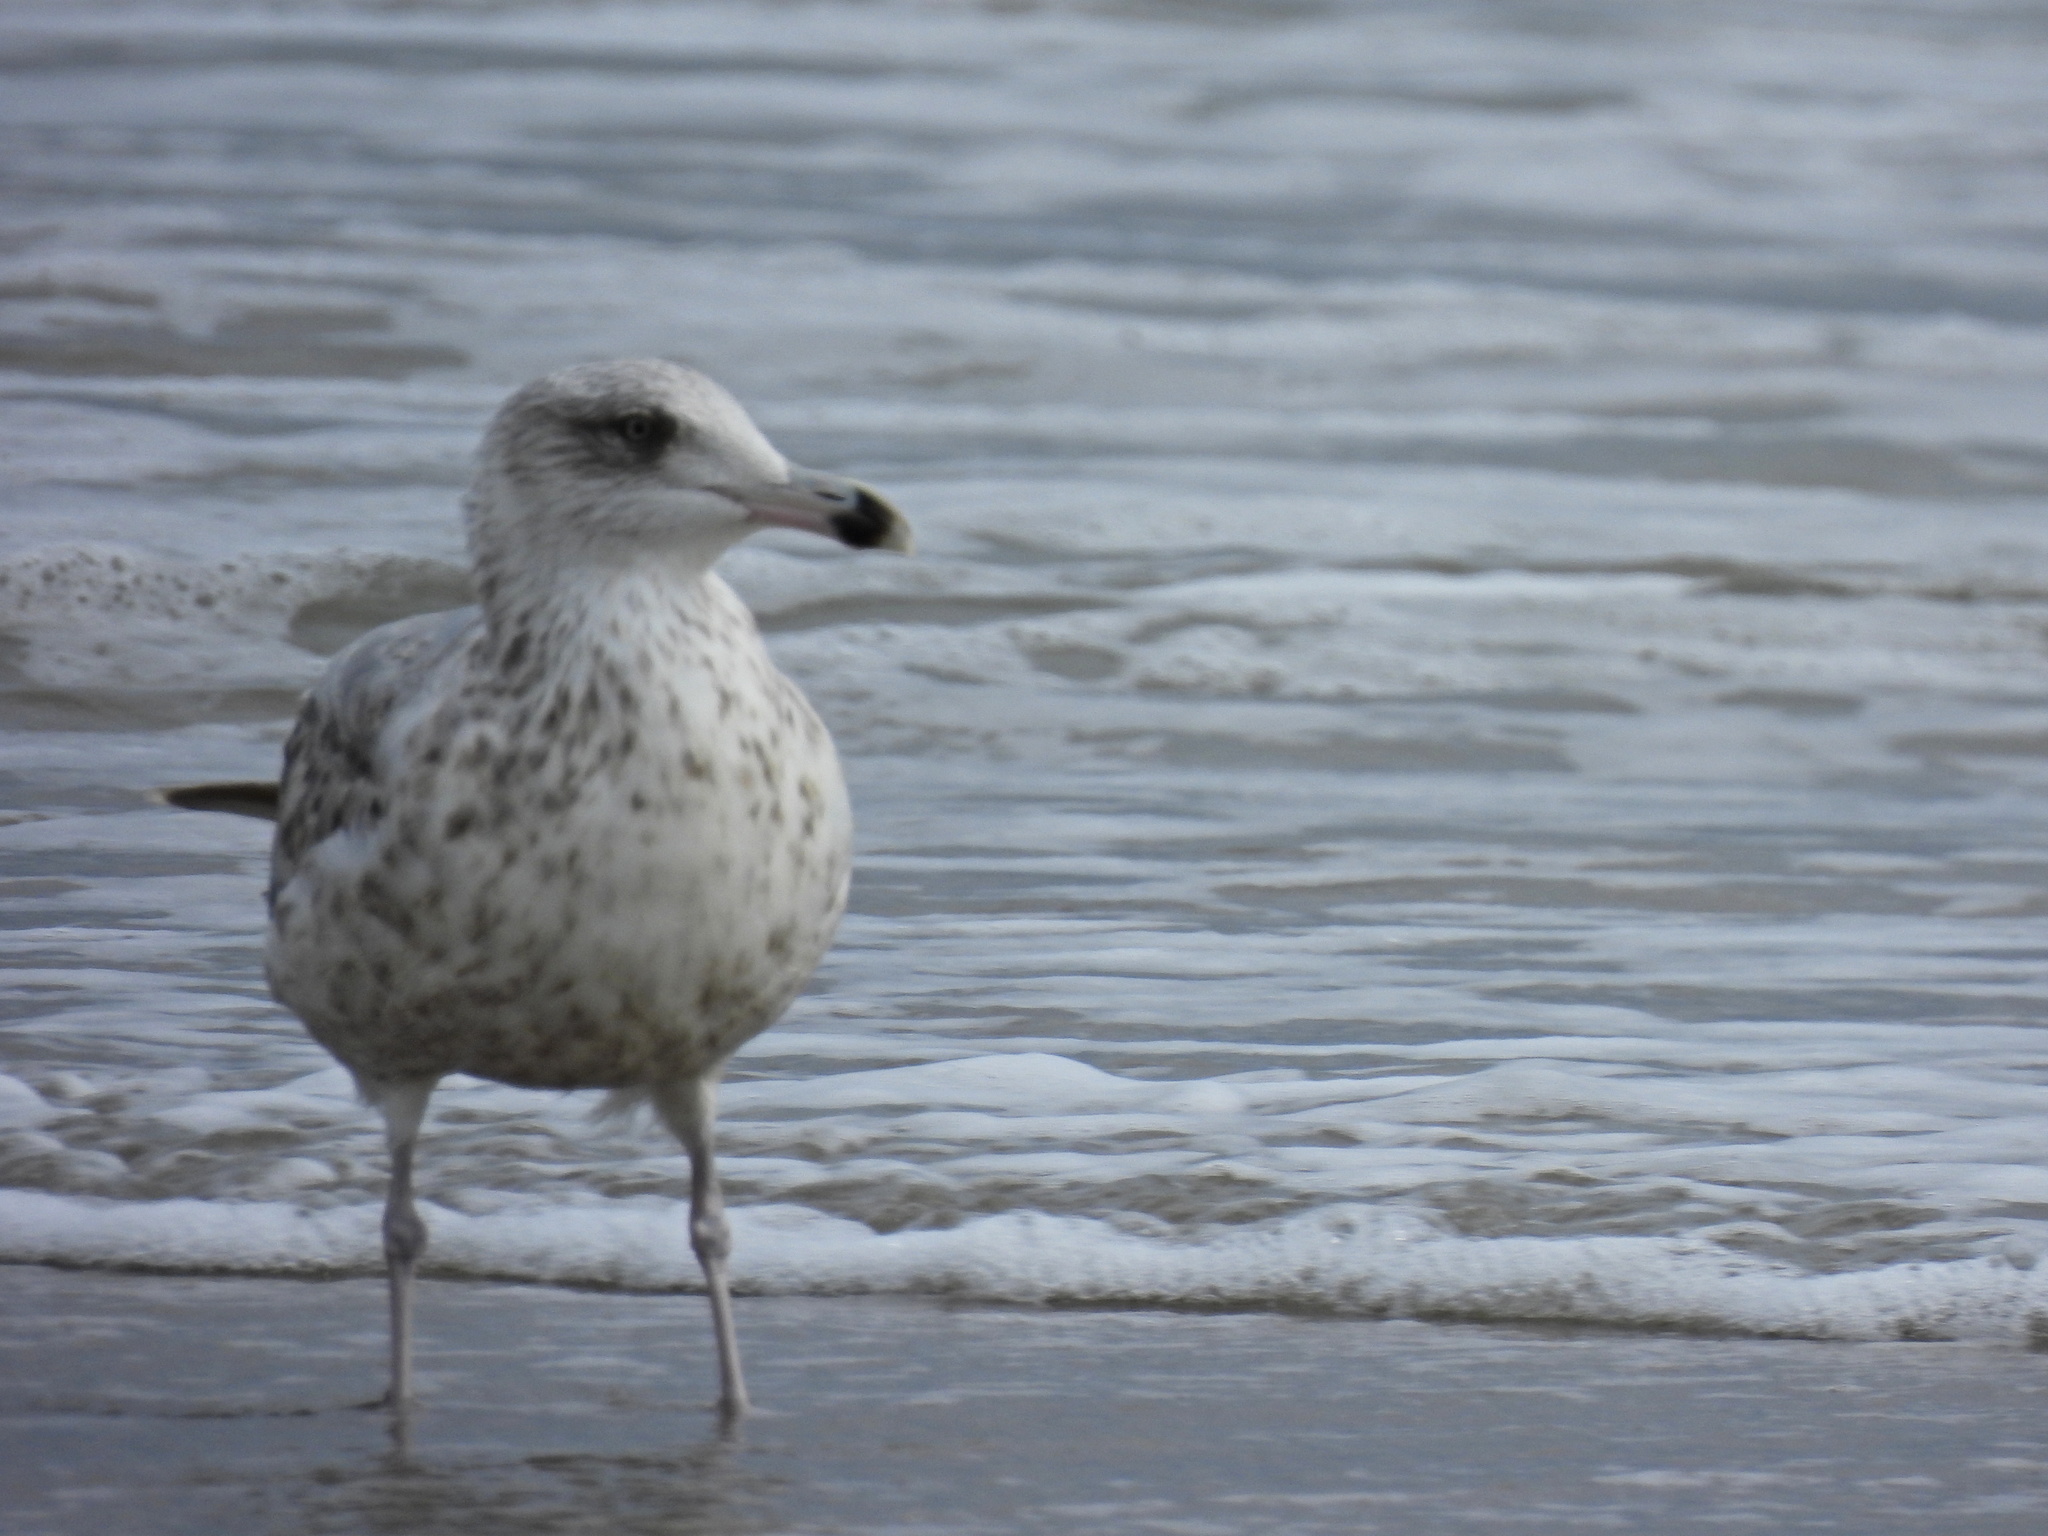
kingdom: Animalia
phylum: Chordata
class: Aves
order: Charadriiformes
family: Laridae
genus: Larus
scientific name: Larus argentatus
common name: Herring gull
